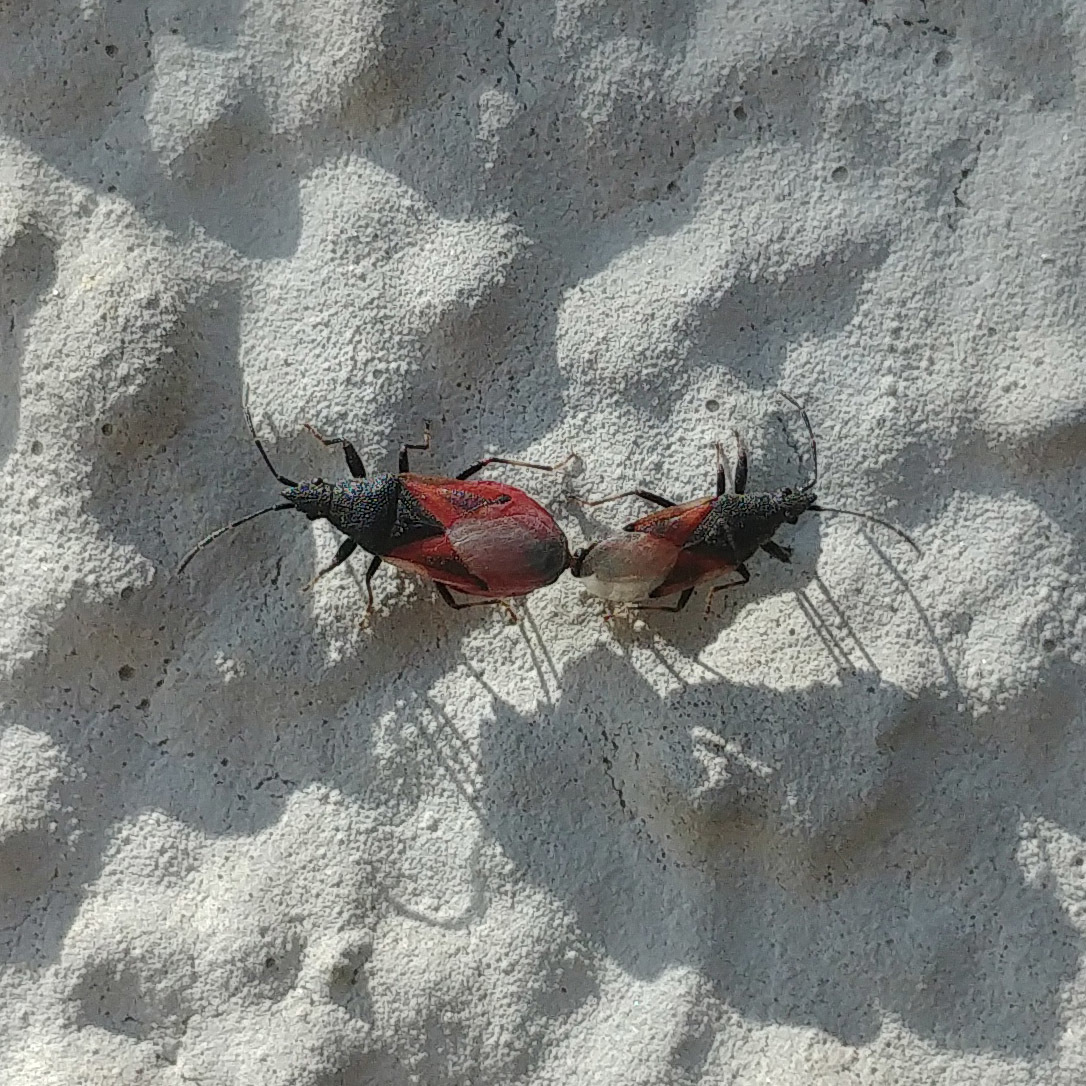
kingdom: Animalia
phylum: Arthropoda
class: Insecta
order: Hemiptera
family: Oxycarenidae
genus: Oxycarenus
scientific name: Oxycarenus lavaterae
